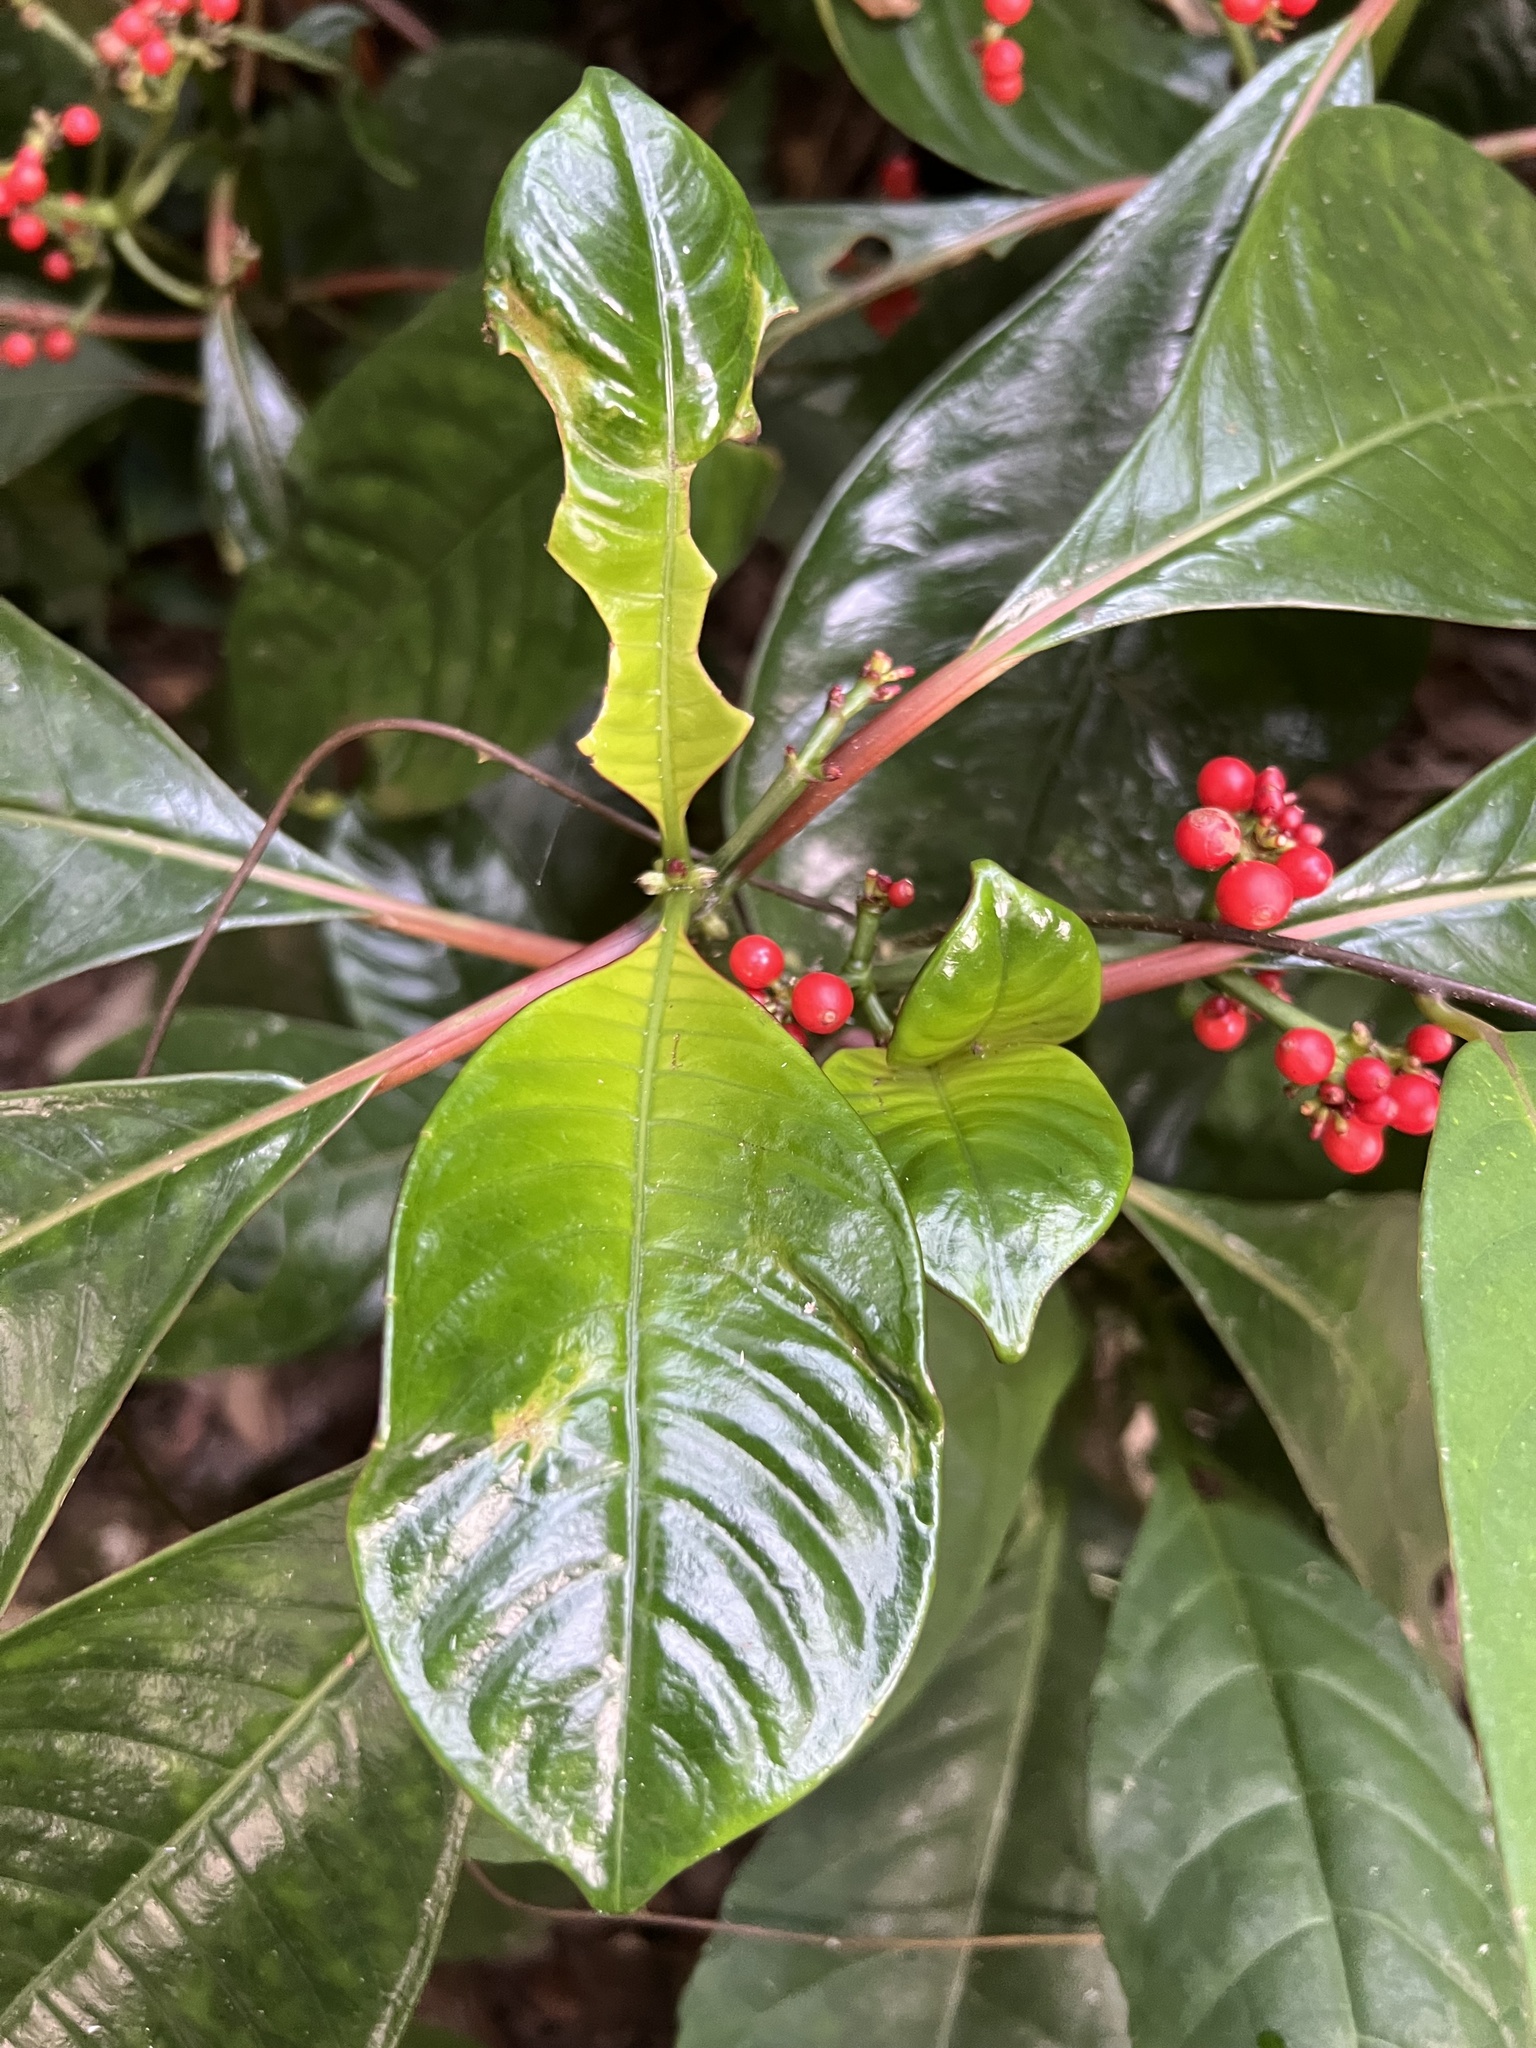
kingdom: Plantae
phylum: Tracheophyta
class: Magnoliopsida
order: Gentianales
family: Rubiaceae
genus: Notopleura
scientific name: Notopleura uliginosa
